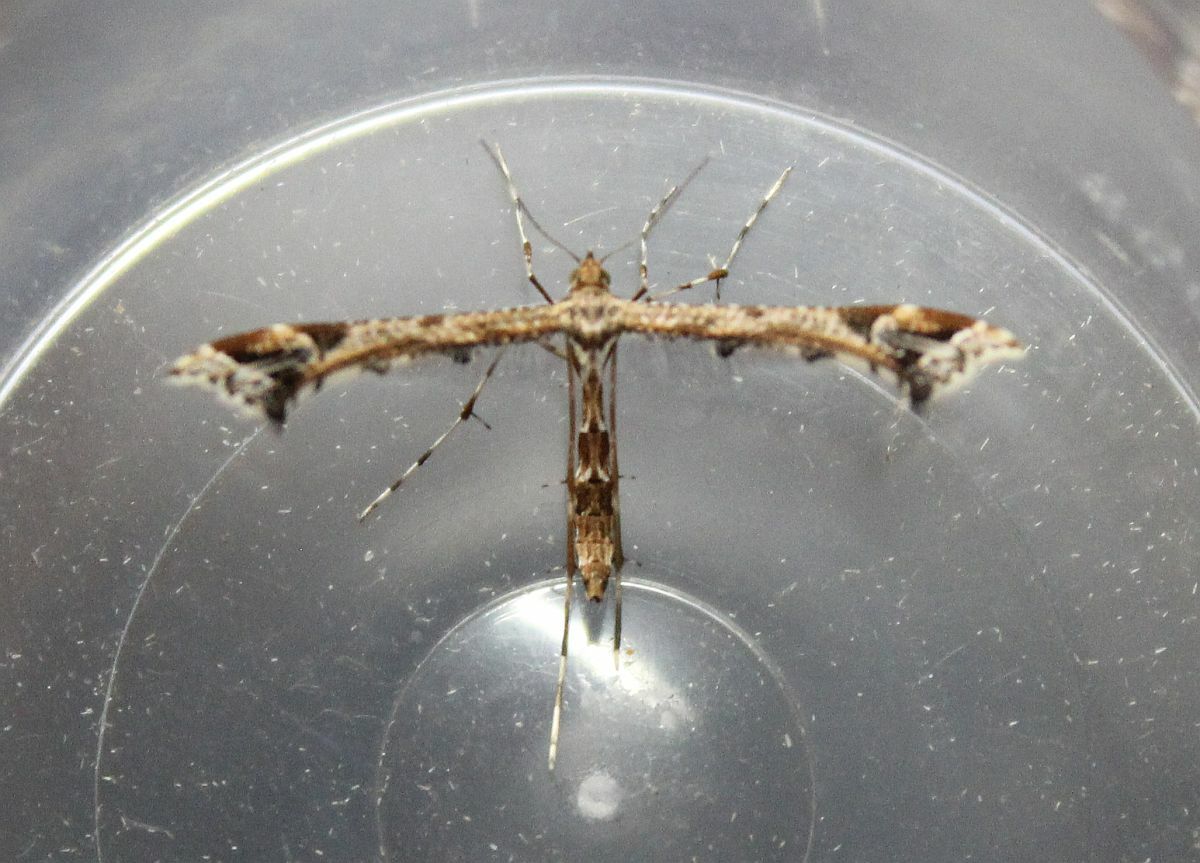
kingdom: Animalia
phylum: Arthropoda
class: Insecta
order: Lepidoptera
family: Pterophoridae
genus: Amblyptilia
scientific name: Amblyptilia acanthadactyla
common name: Beautiful plume
